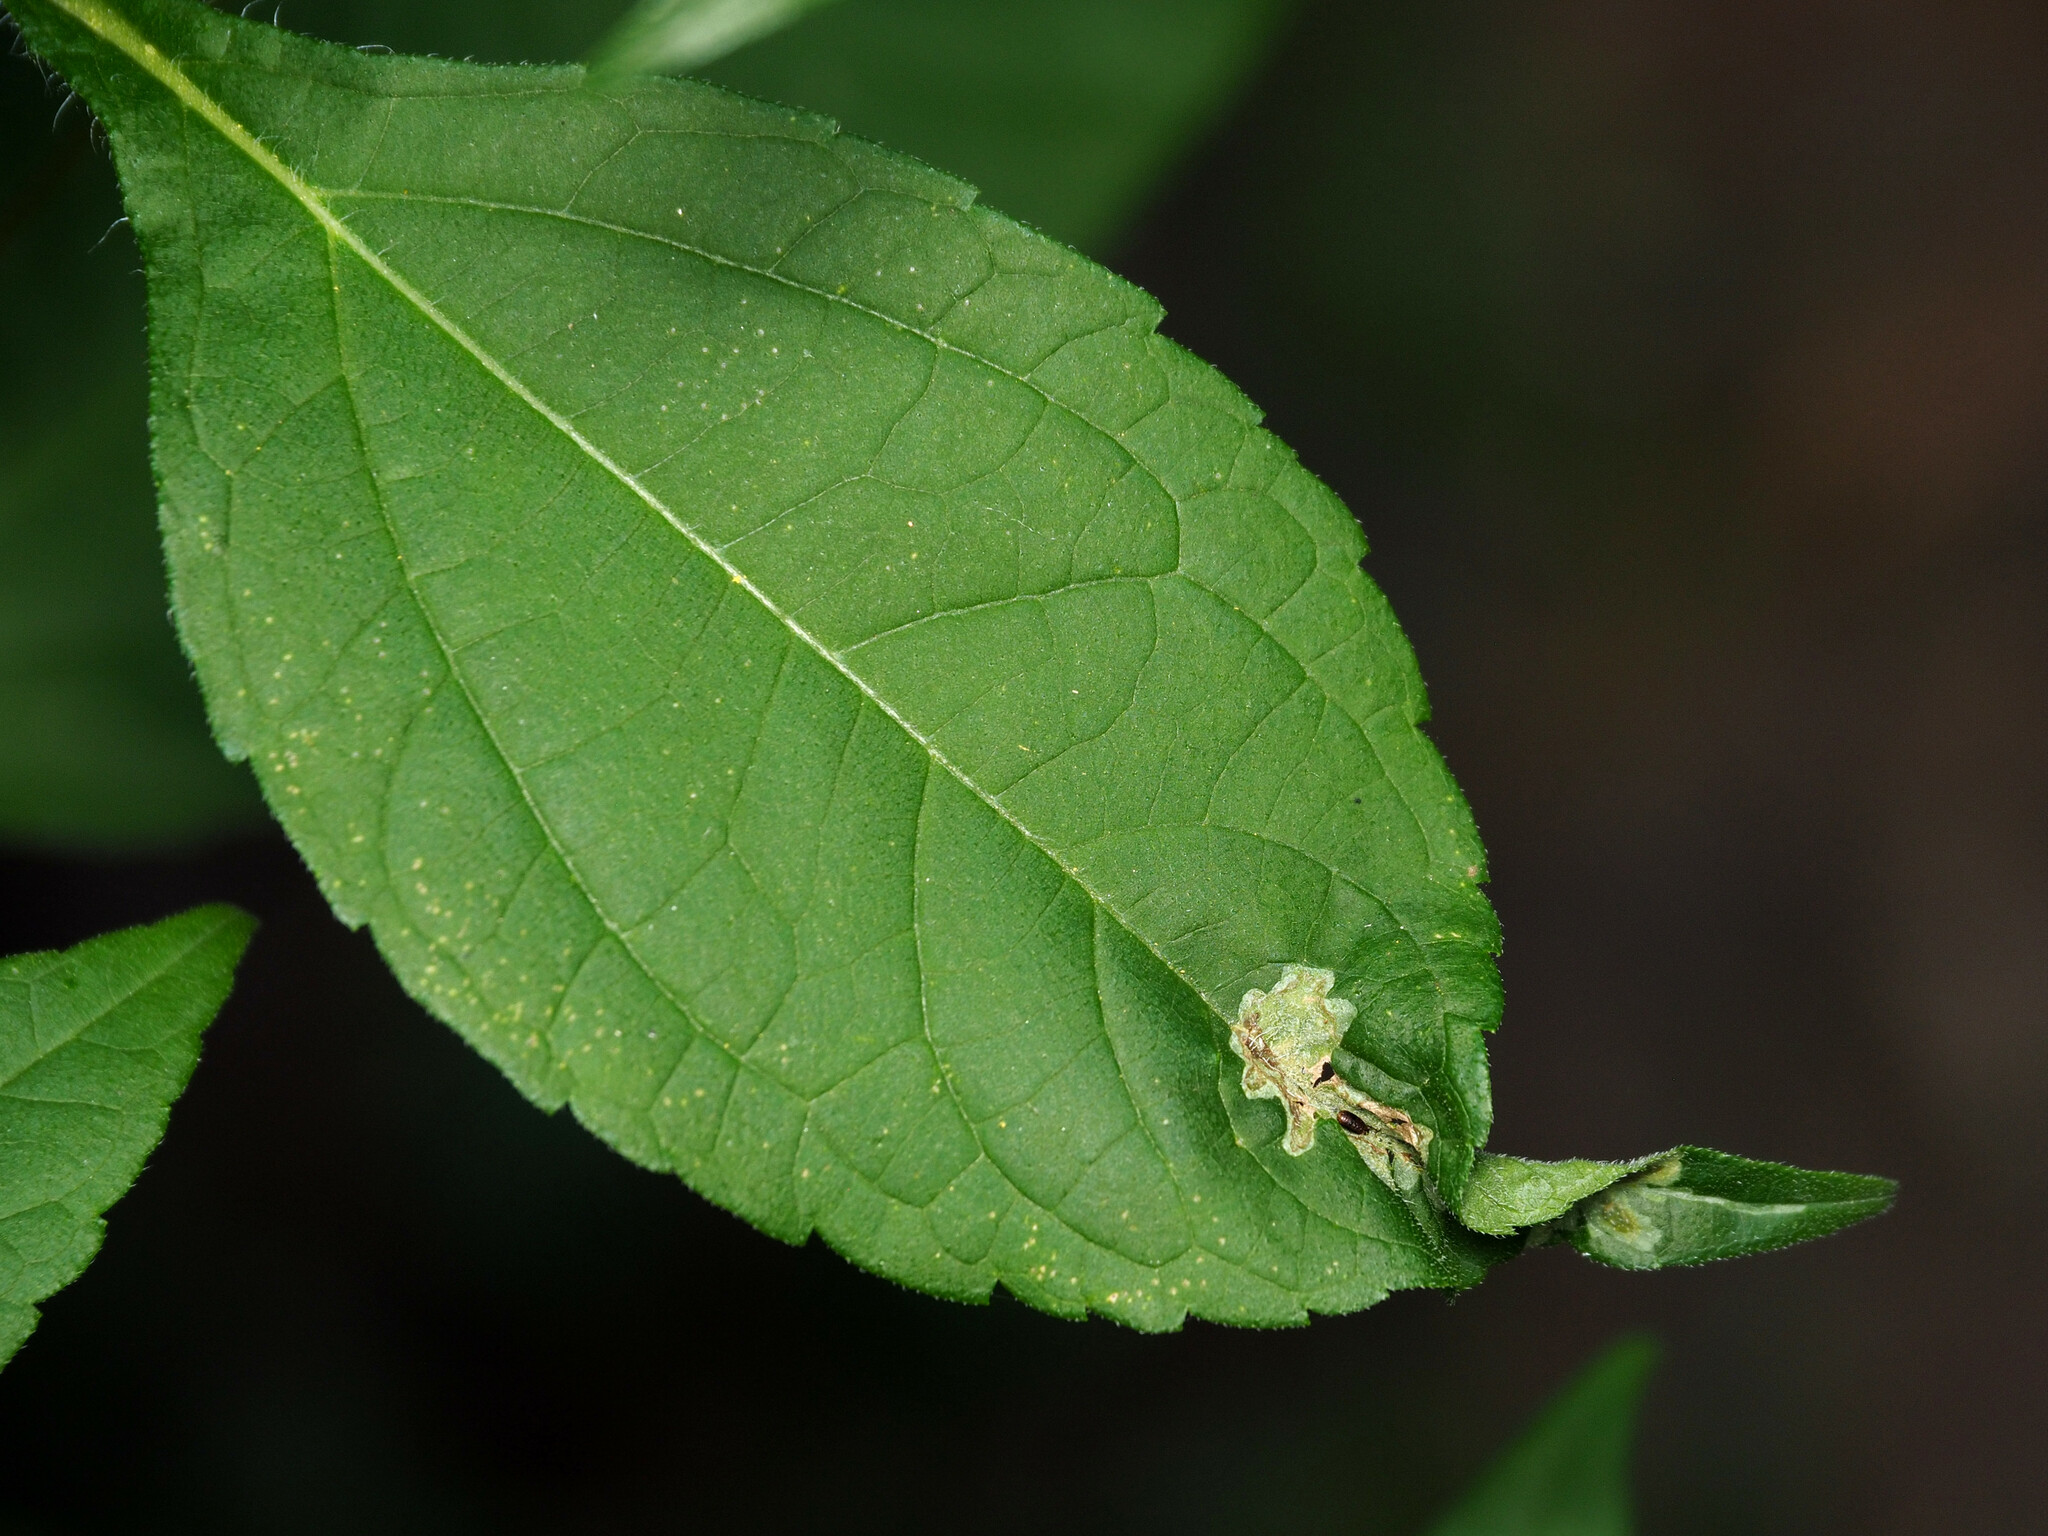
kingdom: Animalia
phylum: Arthropoda
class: Insecta
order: Diptera
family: Agromyzidae
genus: Calycomyza
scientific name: Calycomyza platyptera
